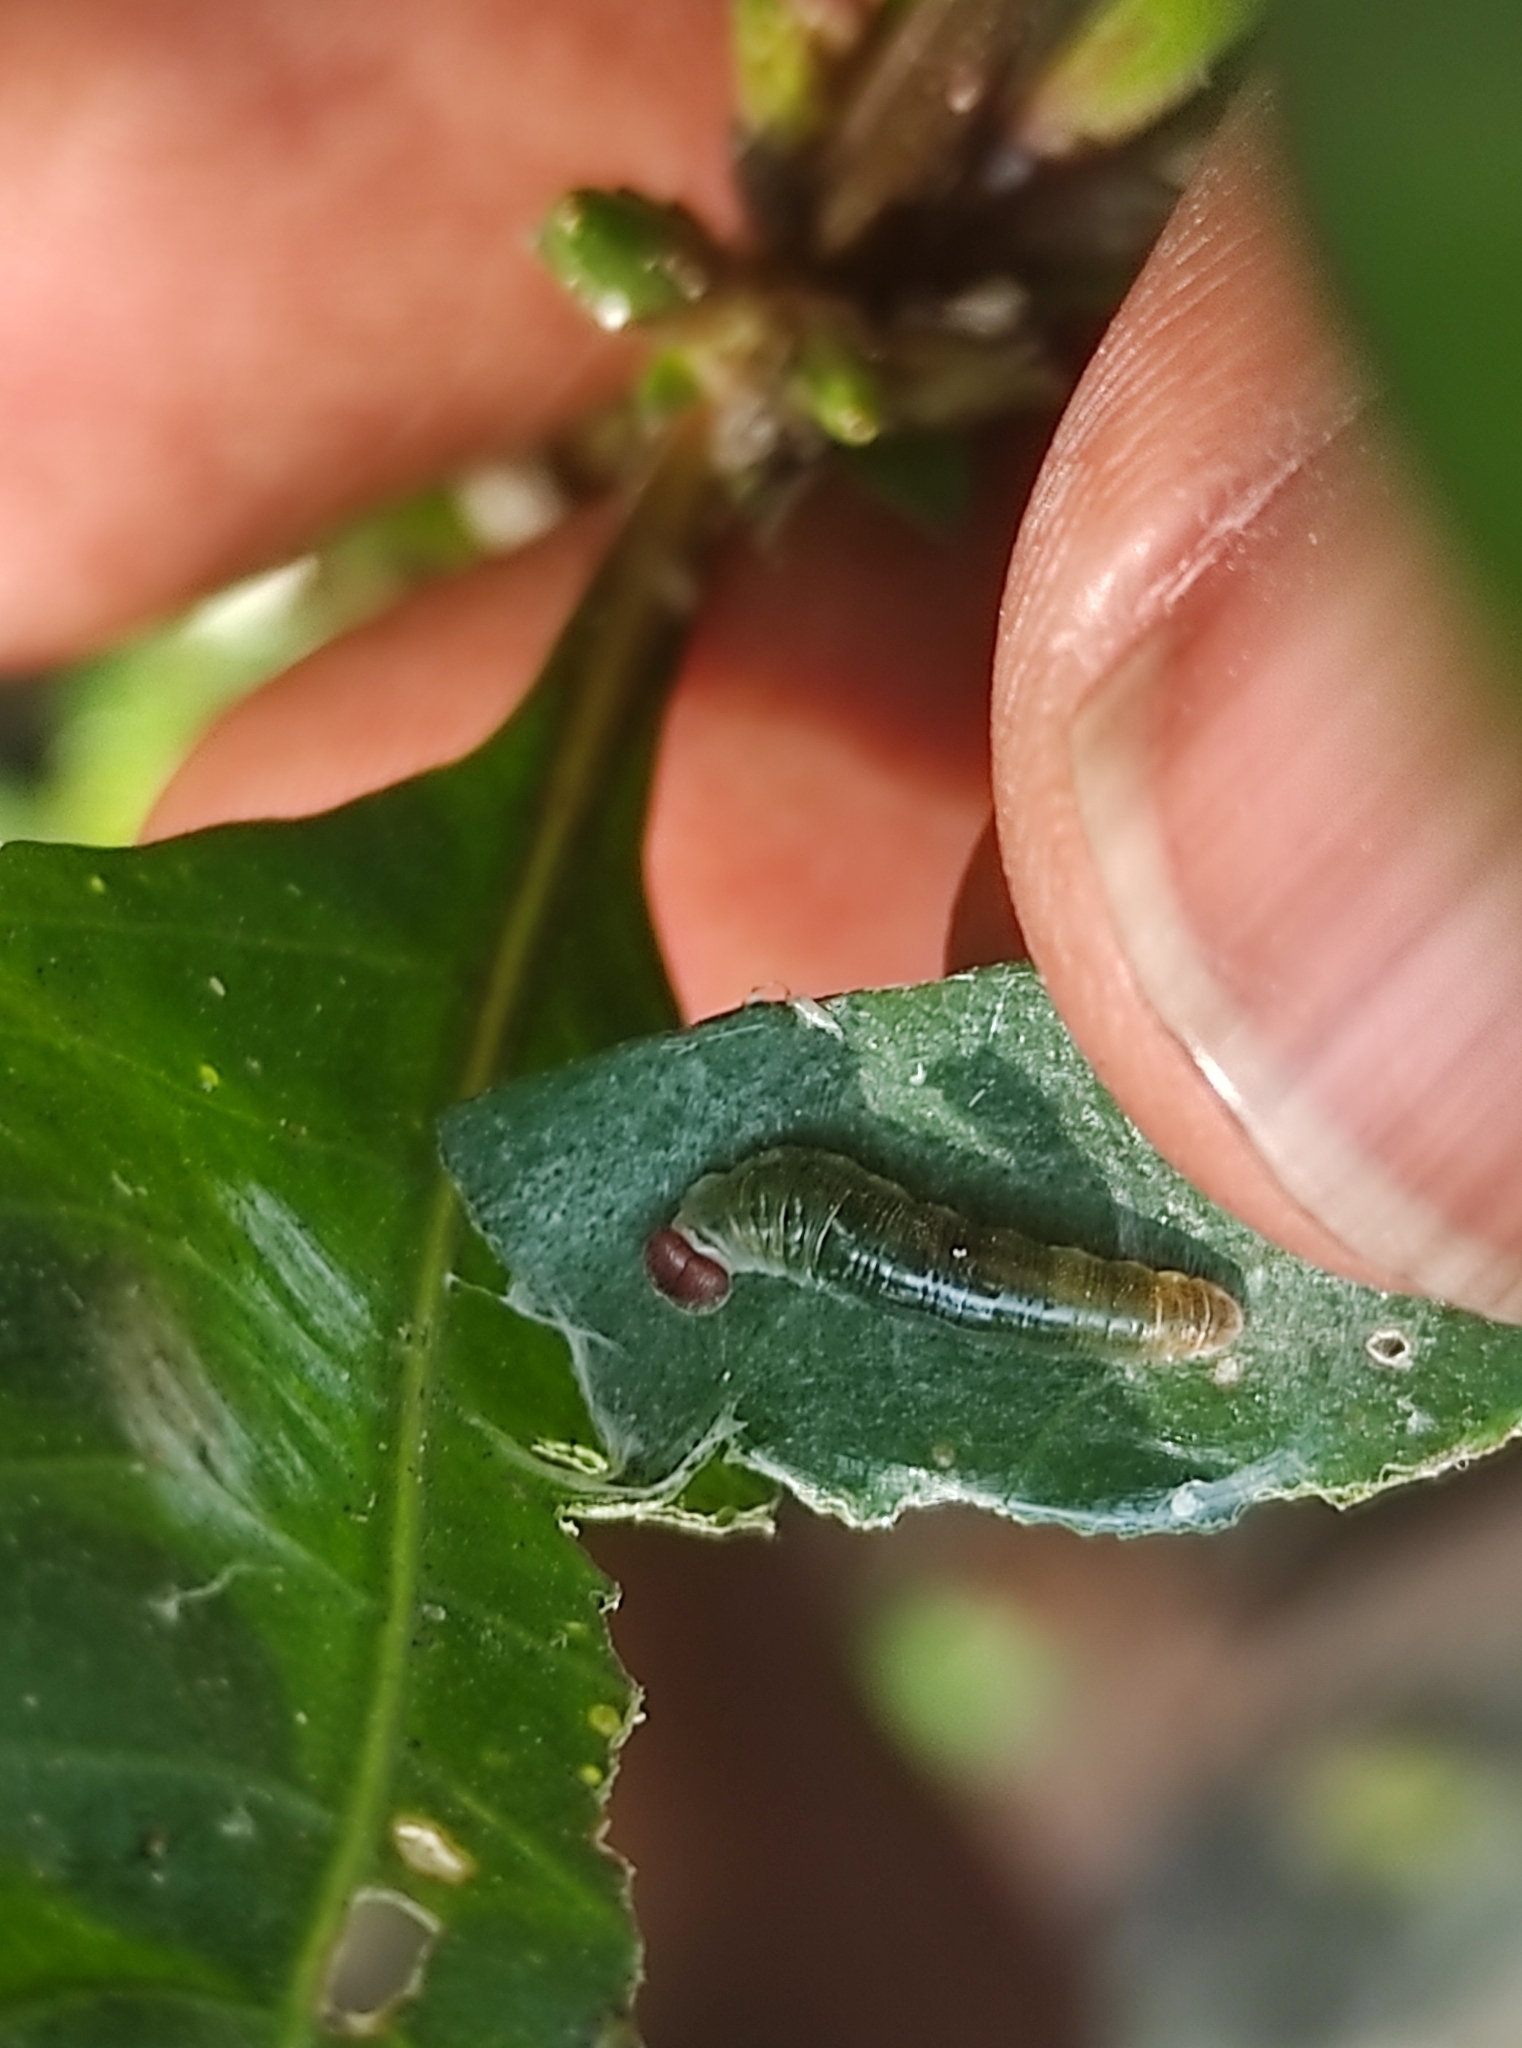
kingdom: Animalia
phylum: Arthropoda
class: Insecta
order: Lepidoptera
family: Hesperiidae
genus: Celaenorrhinus
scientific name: Celaenorrhinus leucocera
